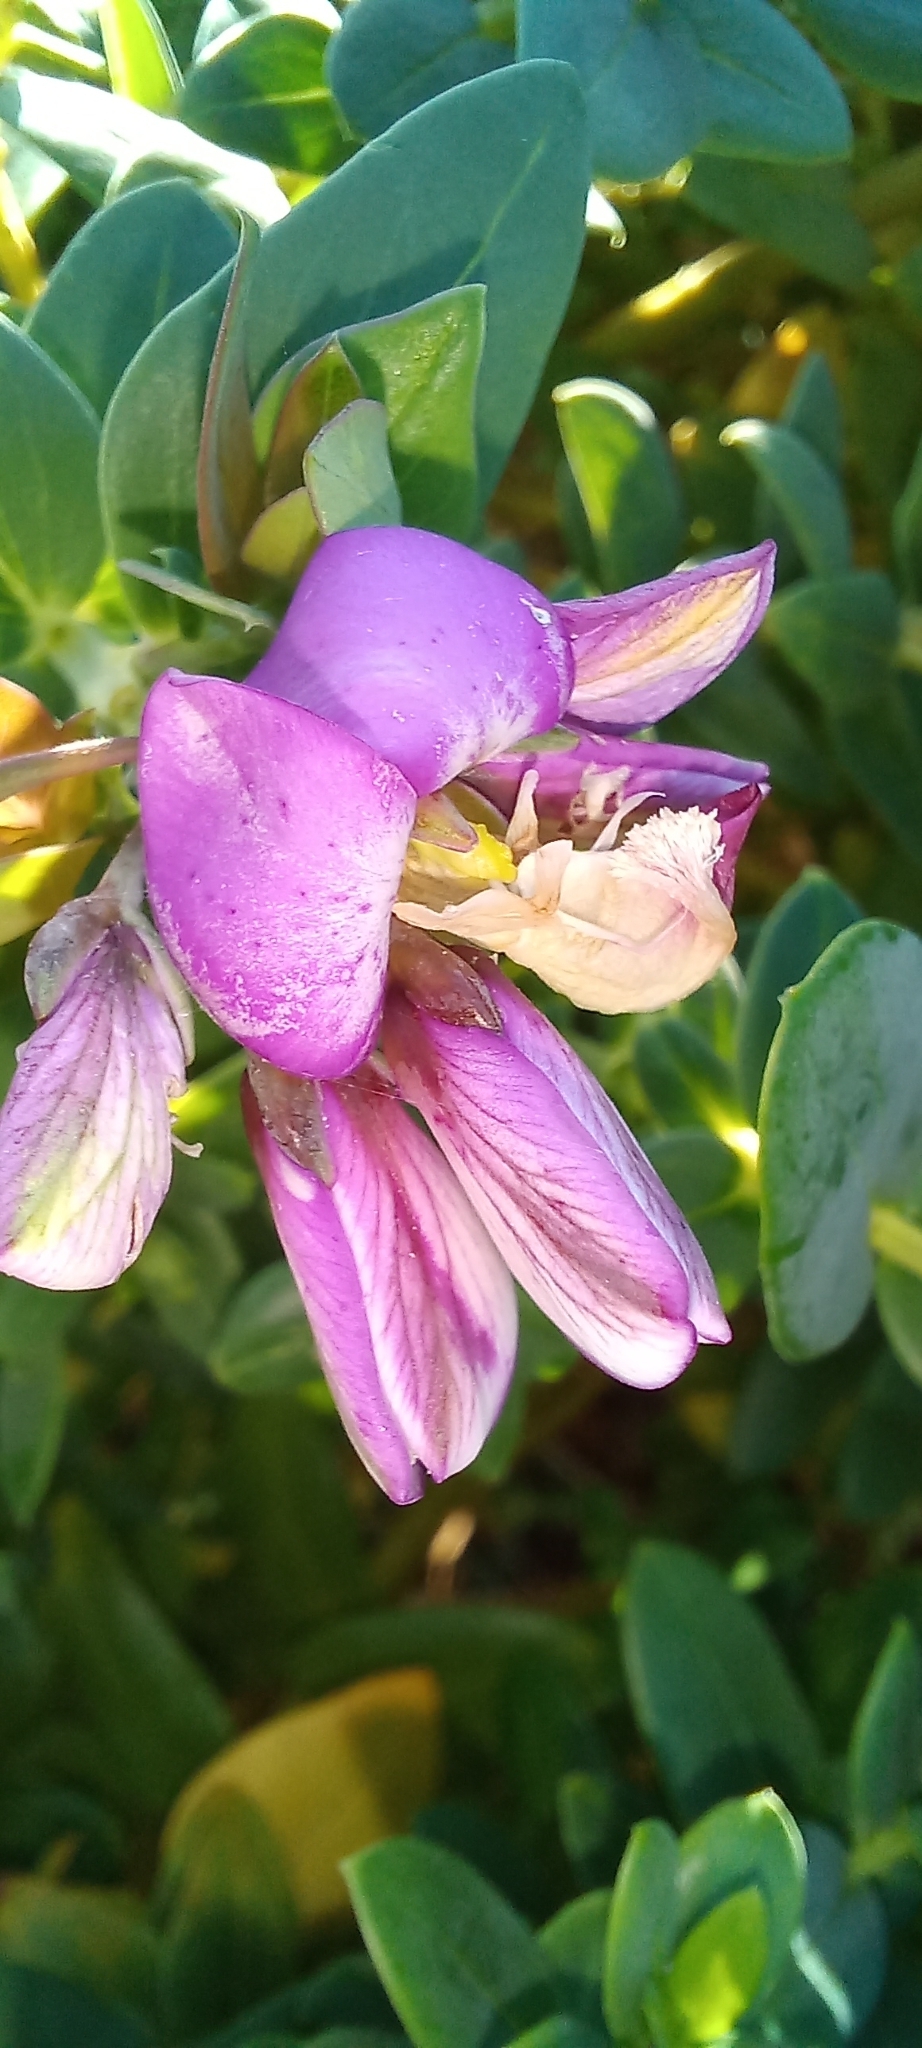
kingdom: Plantae
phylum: Tracheophyta
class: Magnoliopsida
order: Fabales
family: Polygalaceae
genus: Polygala
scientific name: Polygala myrtifolia
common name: Myrtle-leaf milkwort
